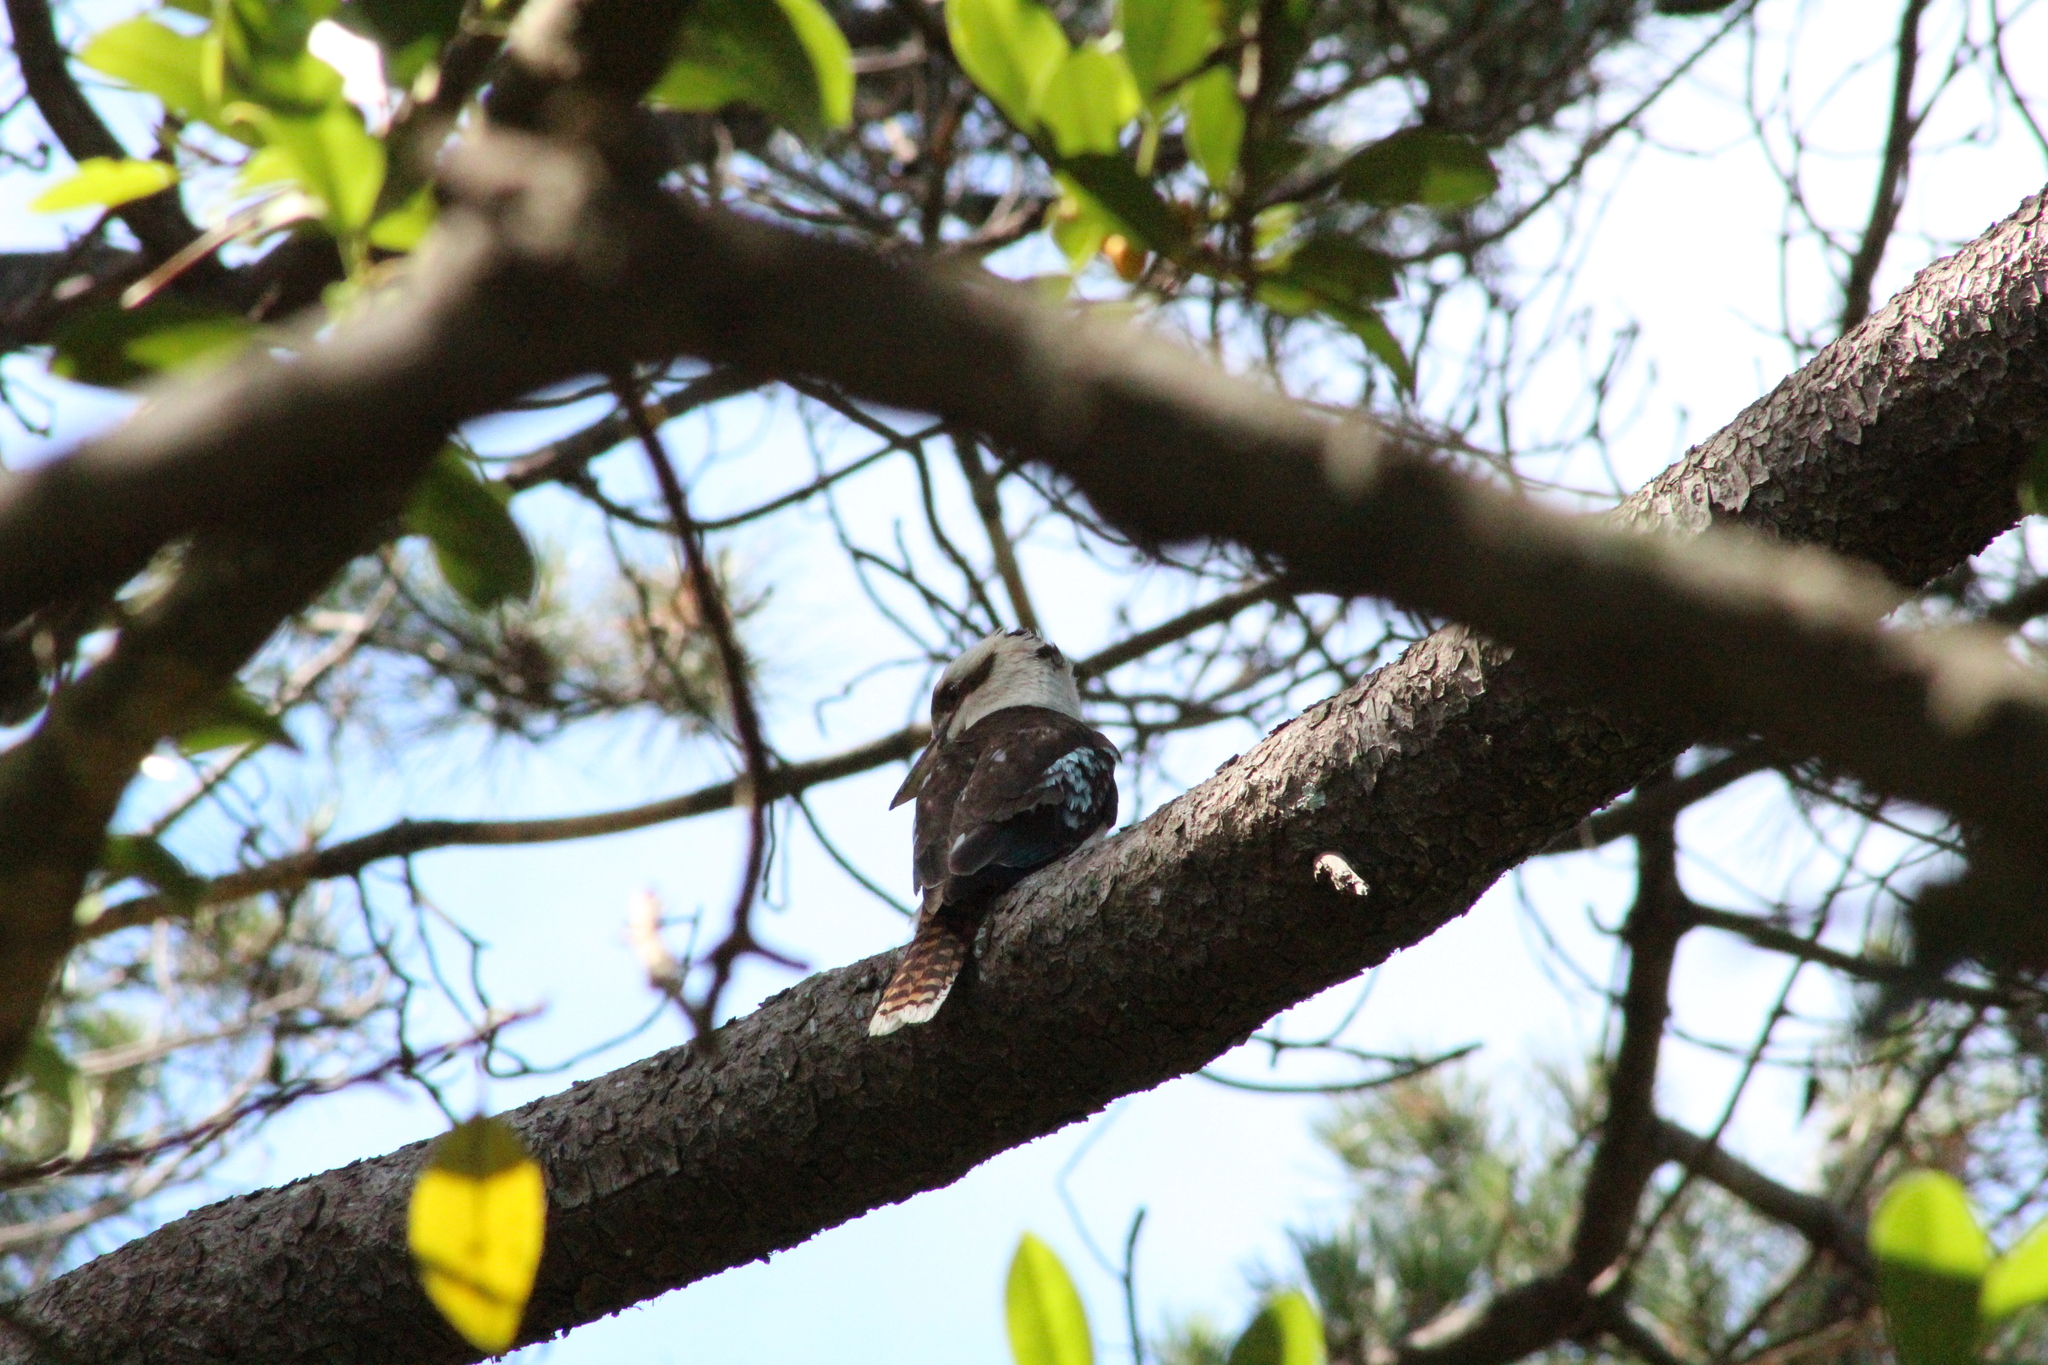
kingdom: Animalia
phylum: Chordata
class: Aves
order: Coraciiformes
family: Alcedinidae
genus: Dacelo
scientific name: Dacelo novaeguineae
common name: Laughing kookaburra
